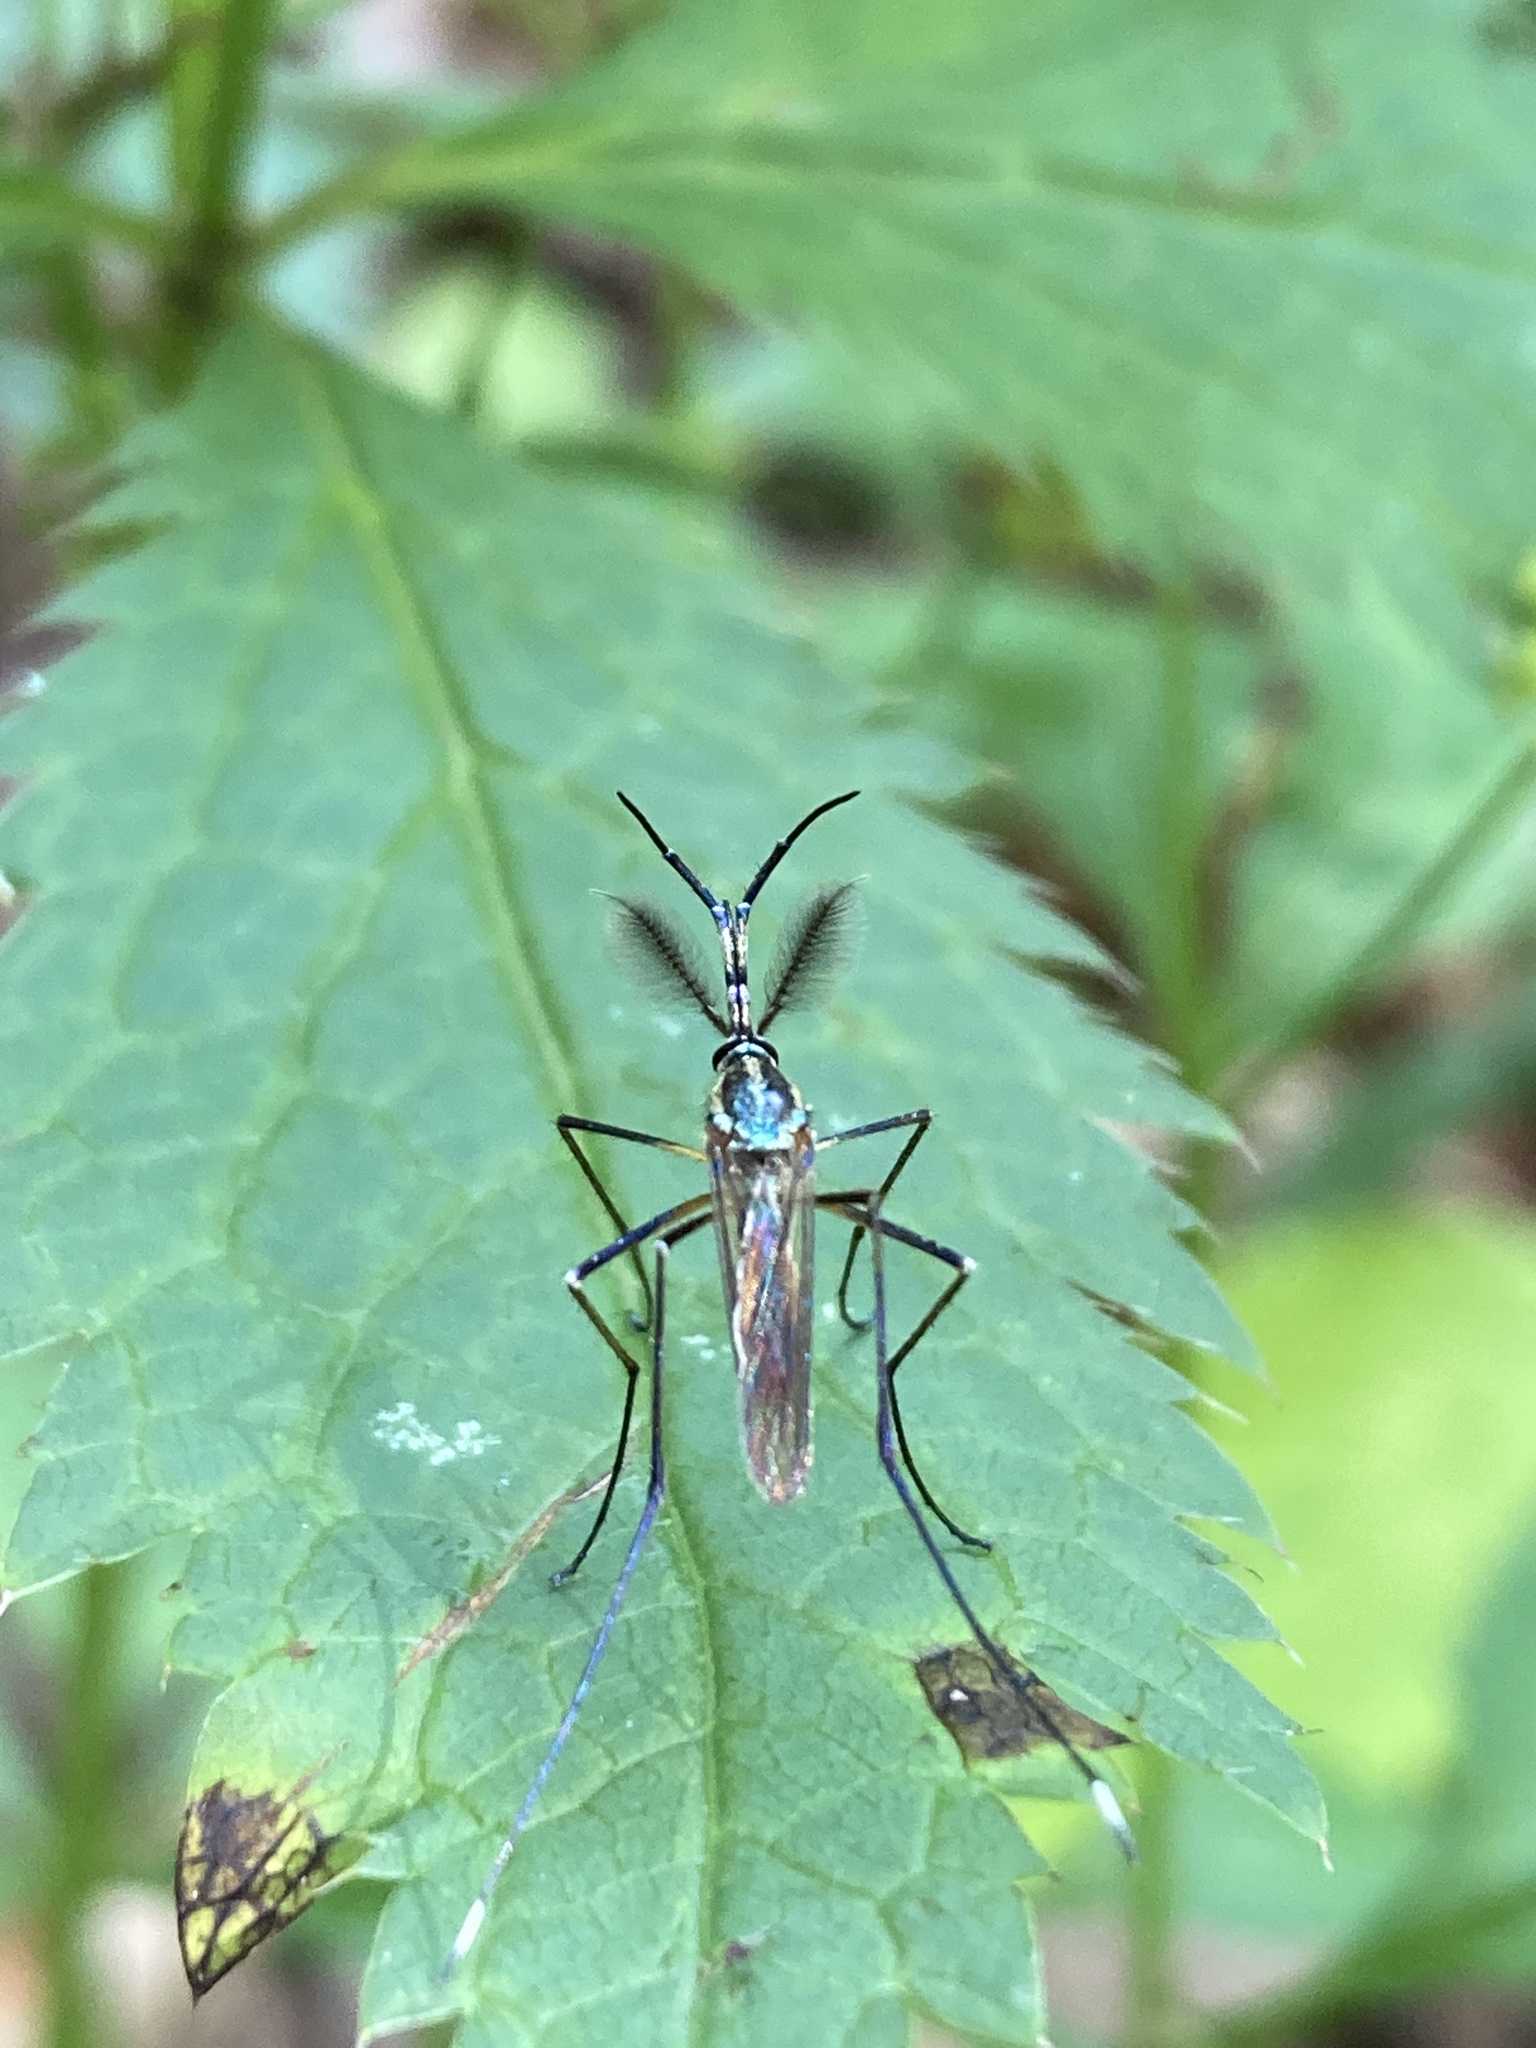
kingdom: Animalia
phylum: Arthropoda
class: Insecta
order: Diptera
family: Culicidae
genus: Toxorhynchites
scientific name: Toxorhynchites rutilus
